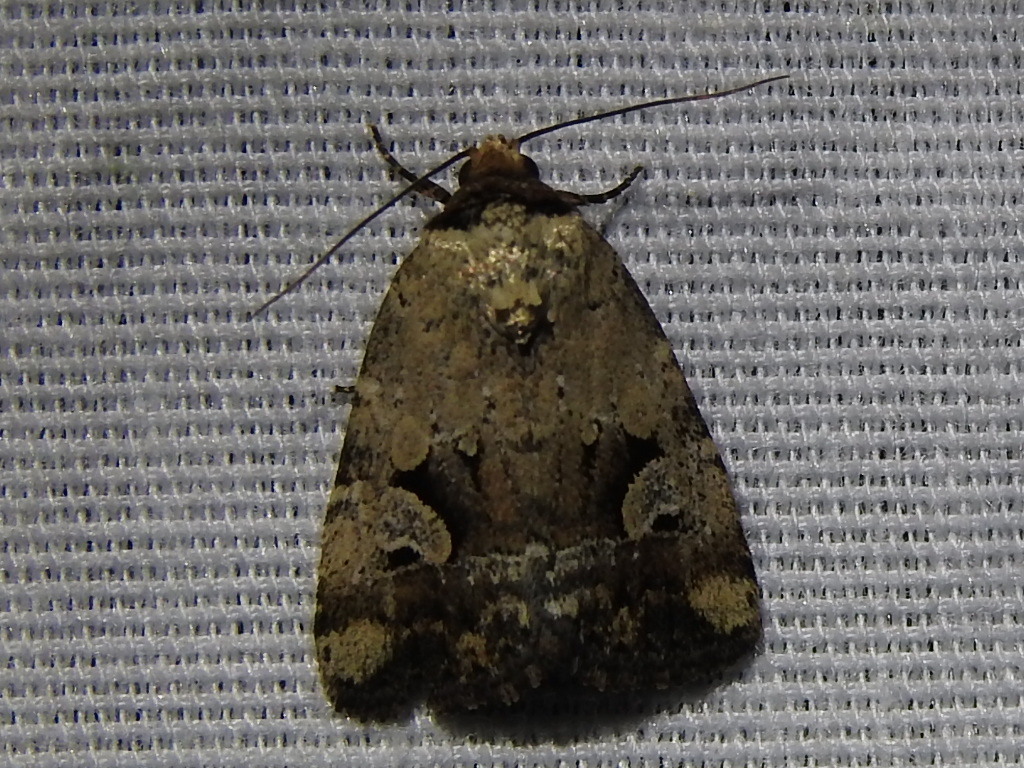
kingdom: Animalia
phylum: Arthropoda
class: Insecta
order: Lepidoptera
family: Noctuidae
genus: Elaphria
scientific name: Elaphria festivoides
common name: Festive midget
